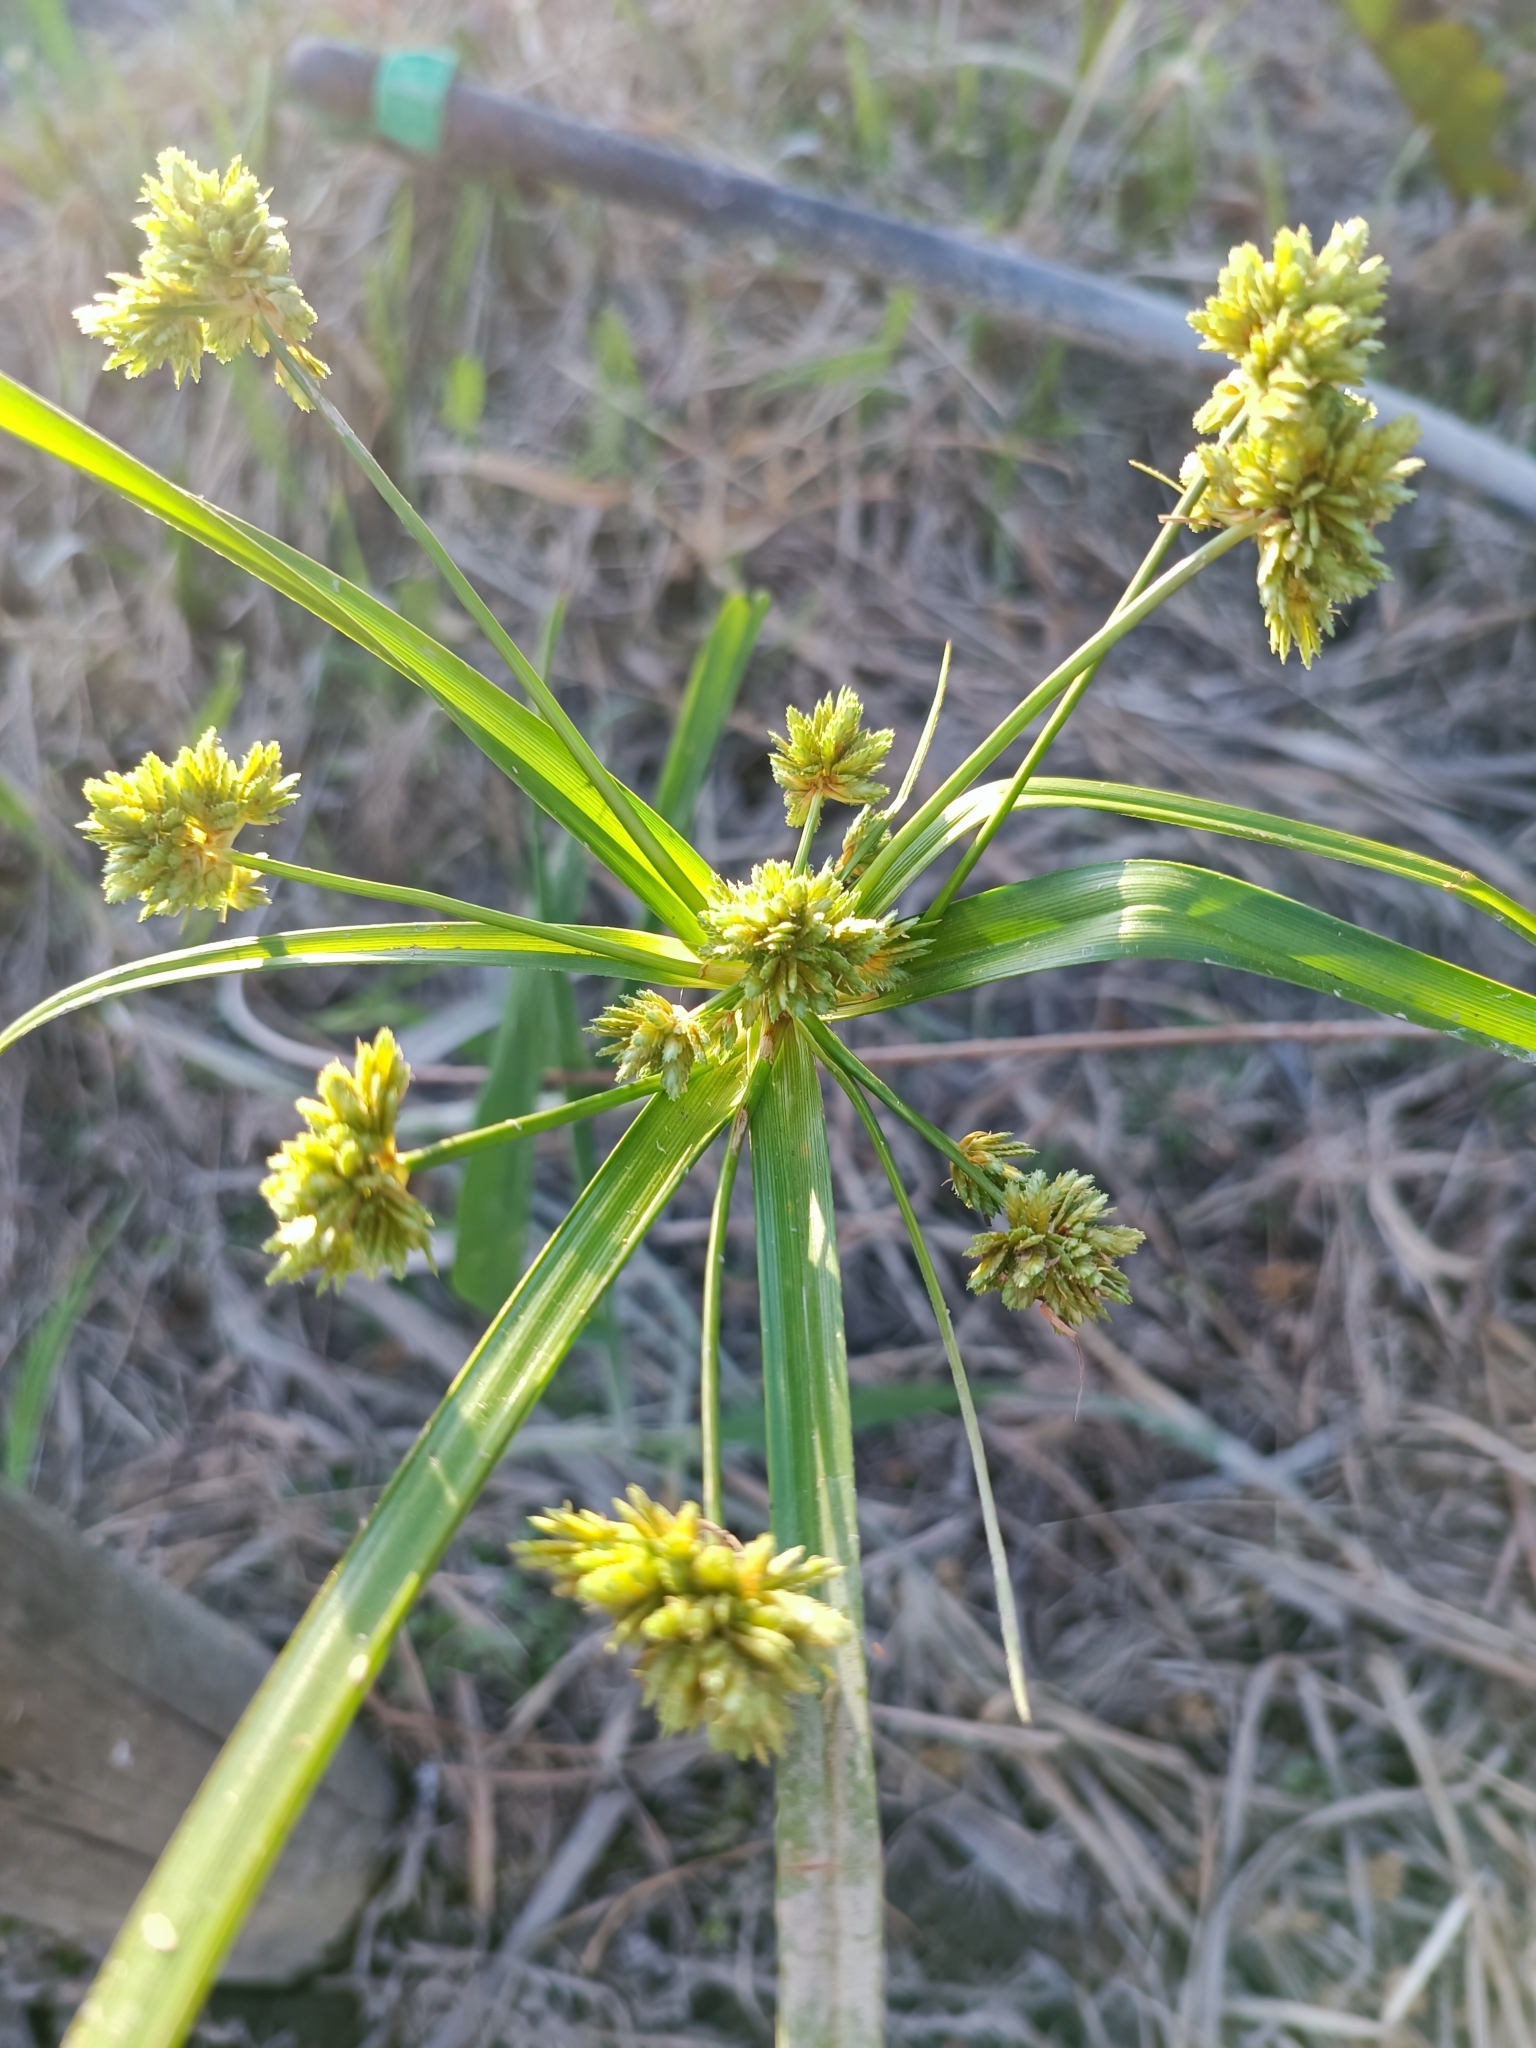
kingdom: Plantae
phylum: Tracheophyta
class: Liliopsida
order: Poales
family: Cyperaceae
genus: Cyperus
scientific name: Cyperus eragrostis
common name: Tall flatsedge
